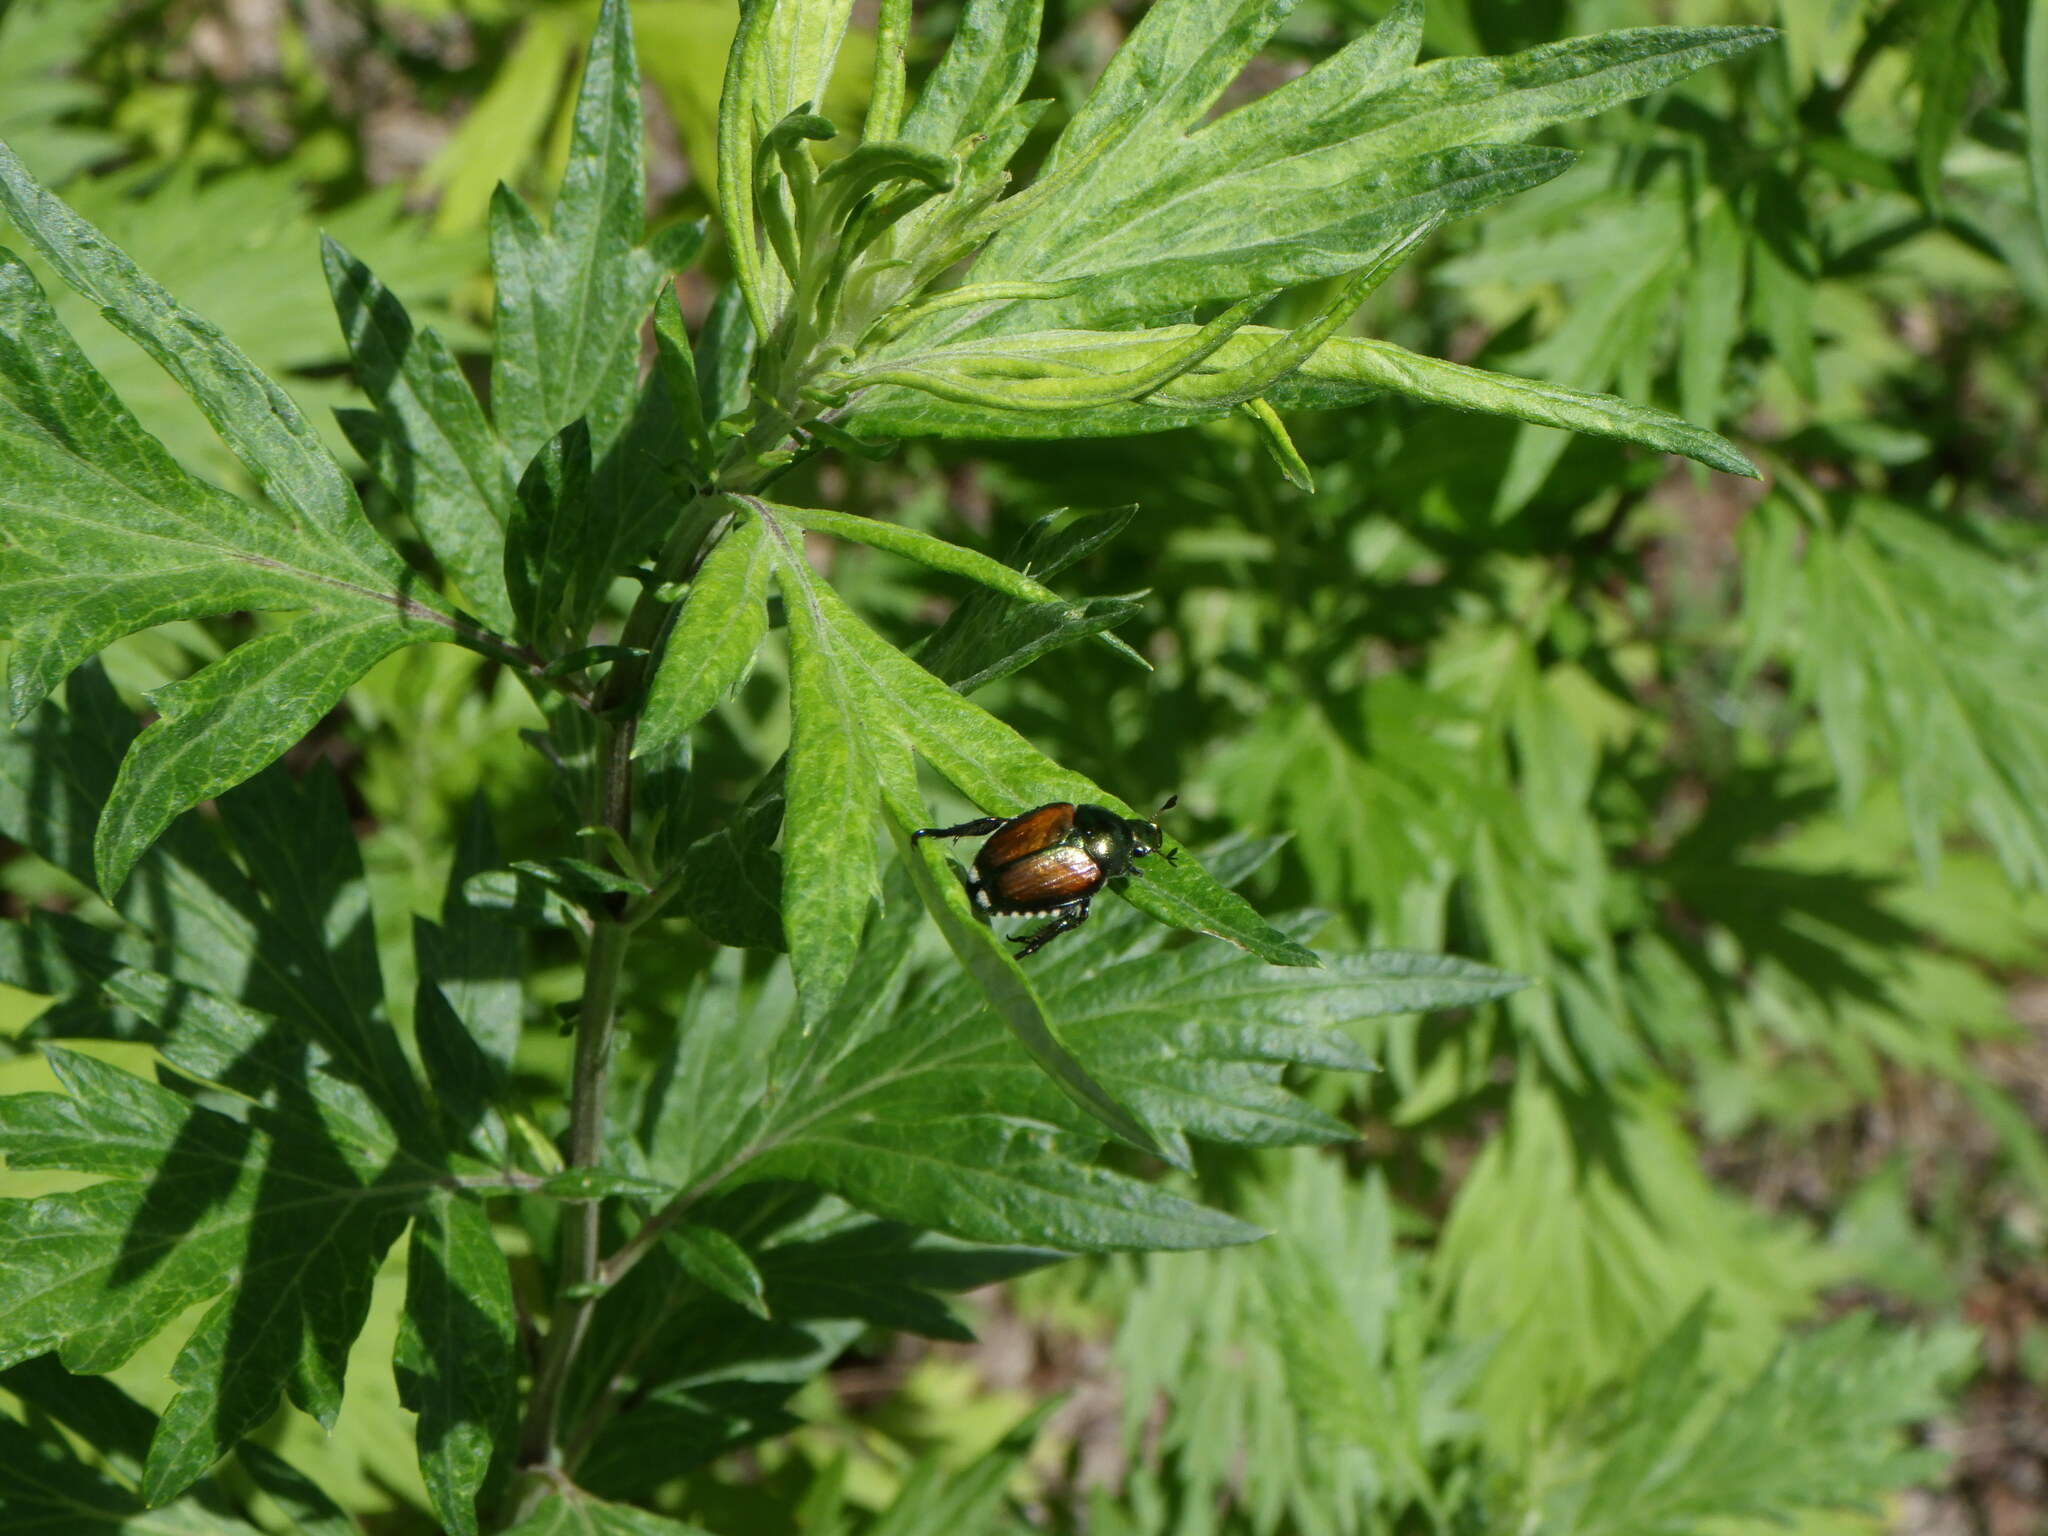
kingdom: Animalia
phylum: Arthropoda
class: Insecta
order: Coleoptera
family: Scarabaeidae
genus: Popillia
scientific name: Popillia japonica
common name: Japanese beetle
